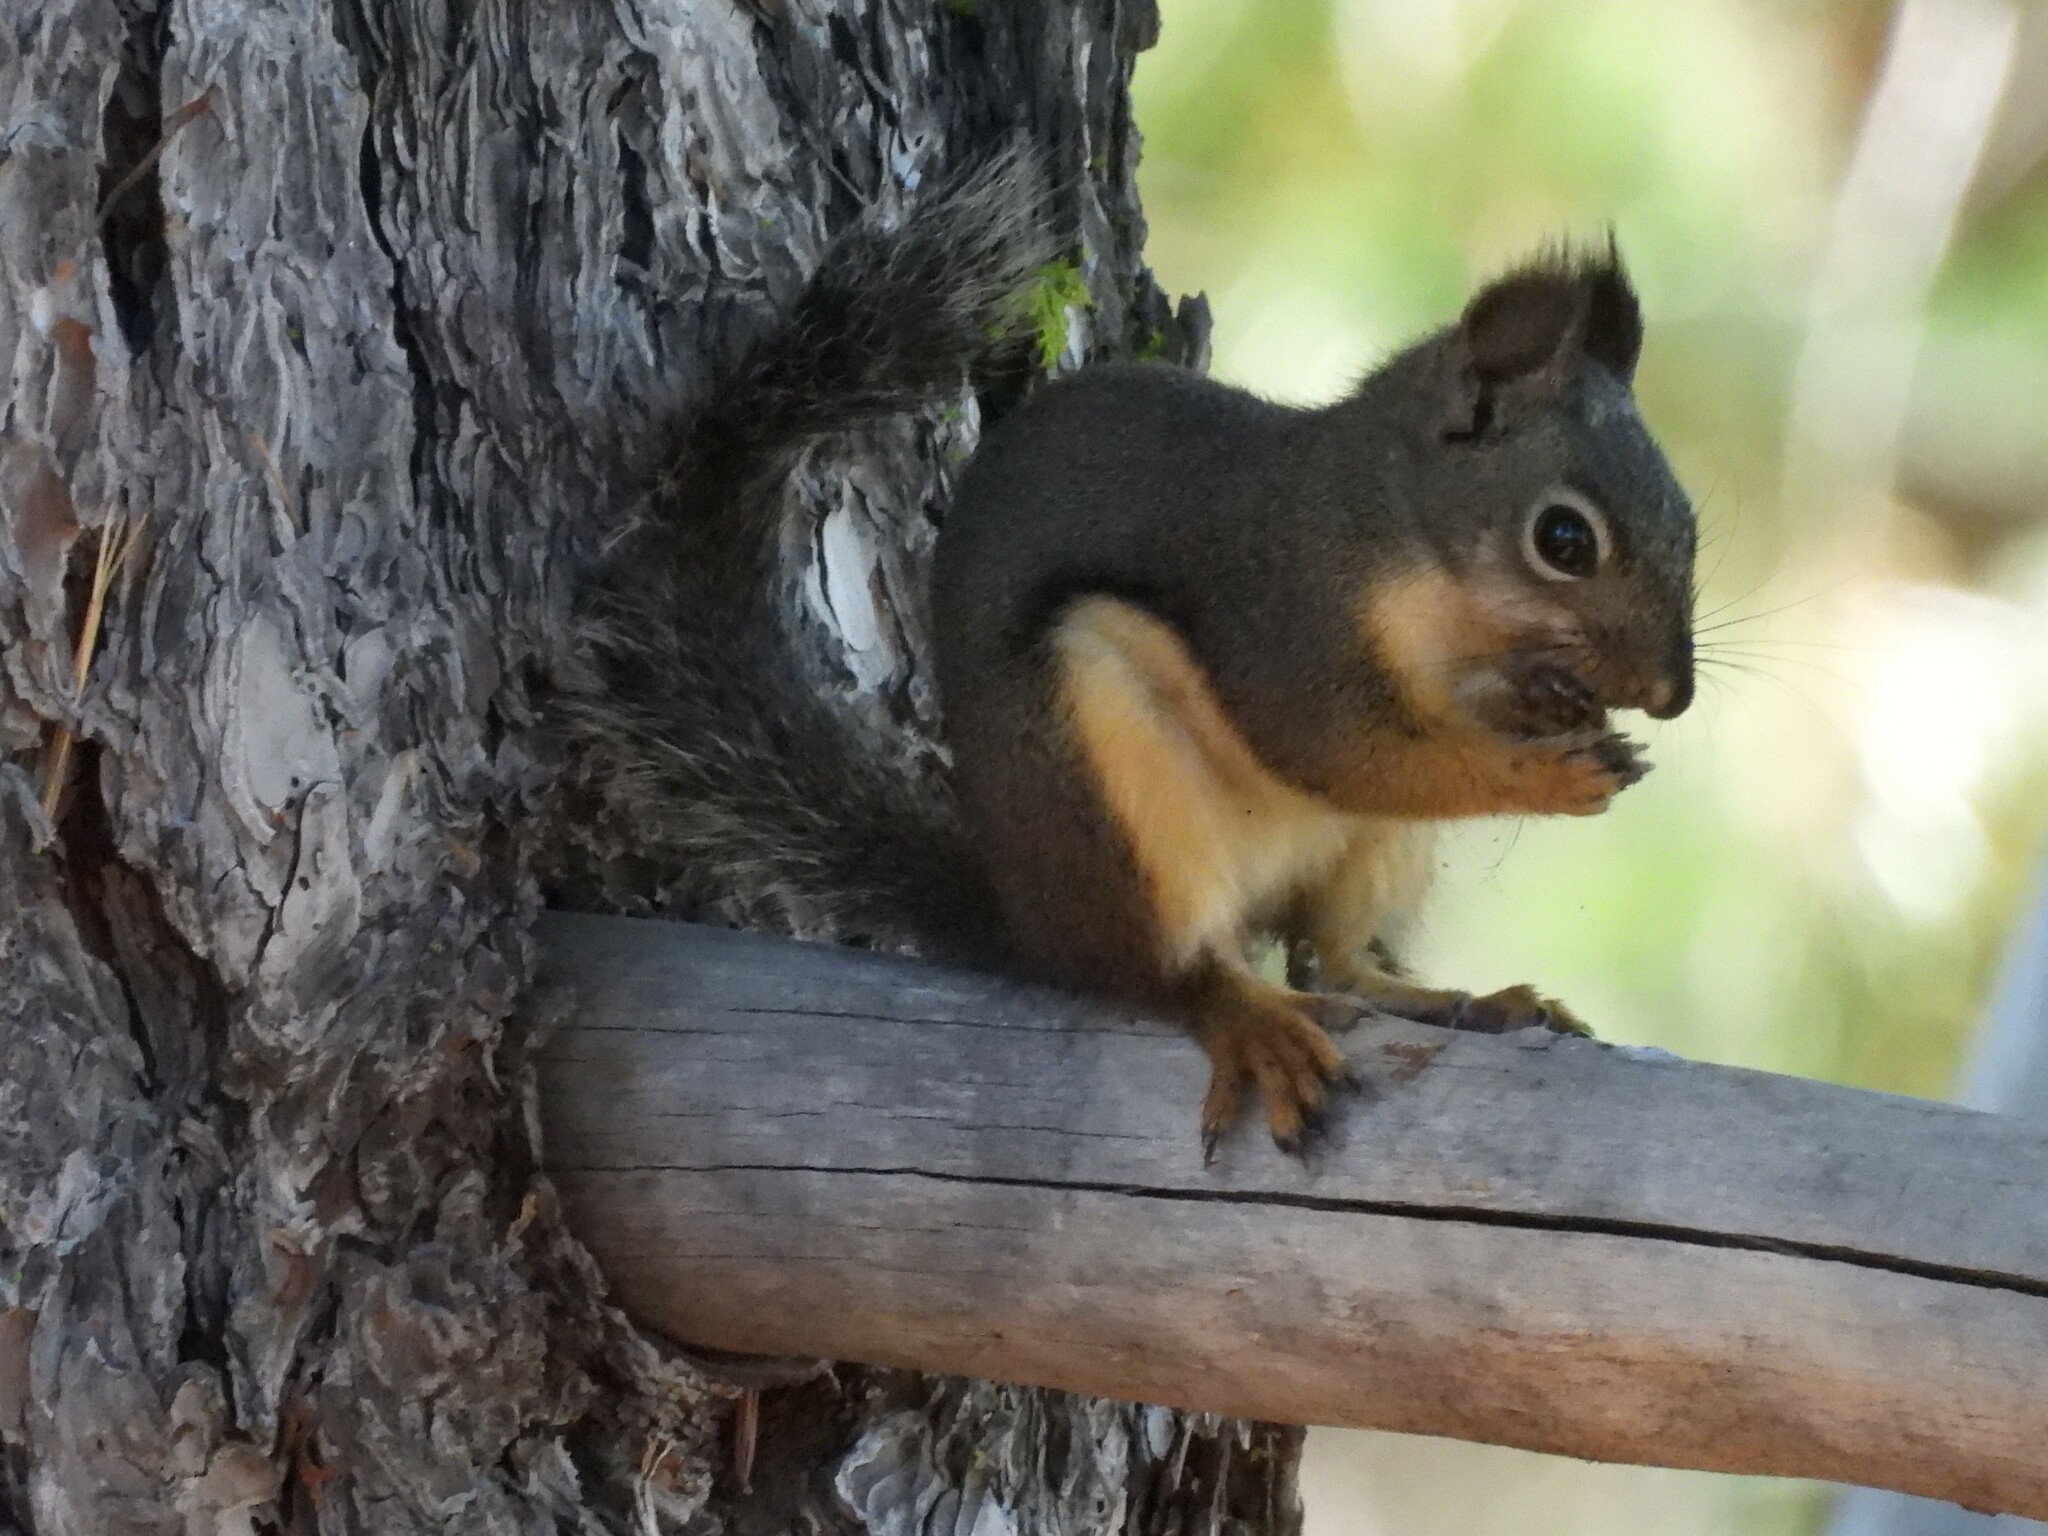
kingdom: Animalia
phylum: Chordata
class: Mammalia
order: Rodentia
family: Sciuridae
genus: Tamiasciurus
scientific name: Tamiasciurus douglasii
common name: Douglas's squirrel
